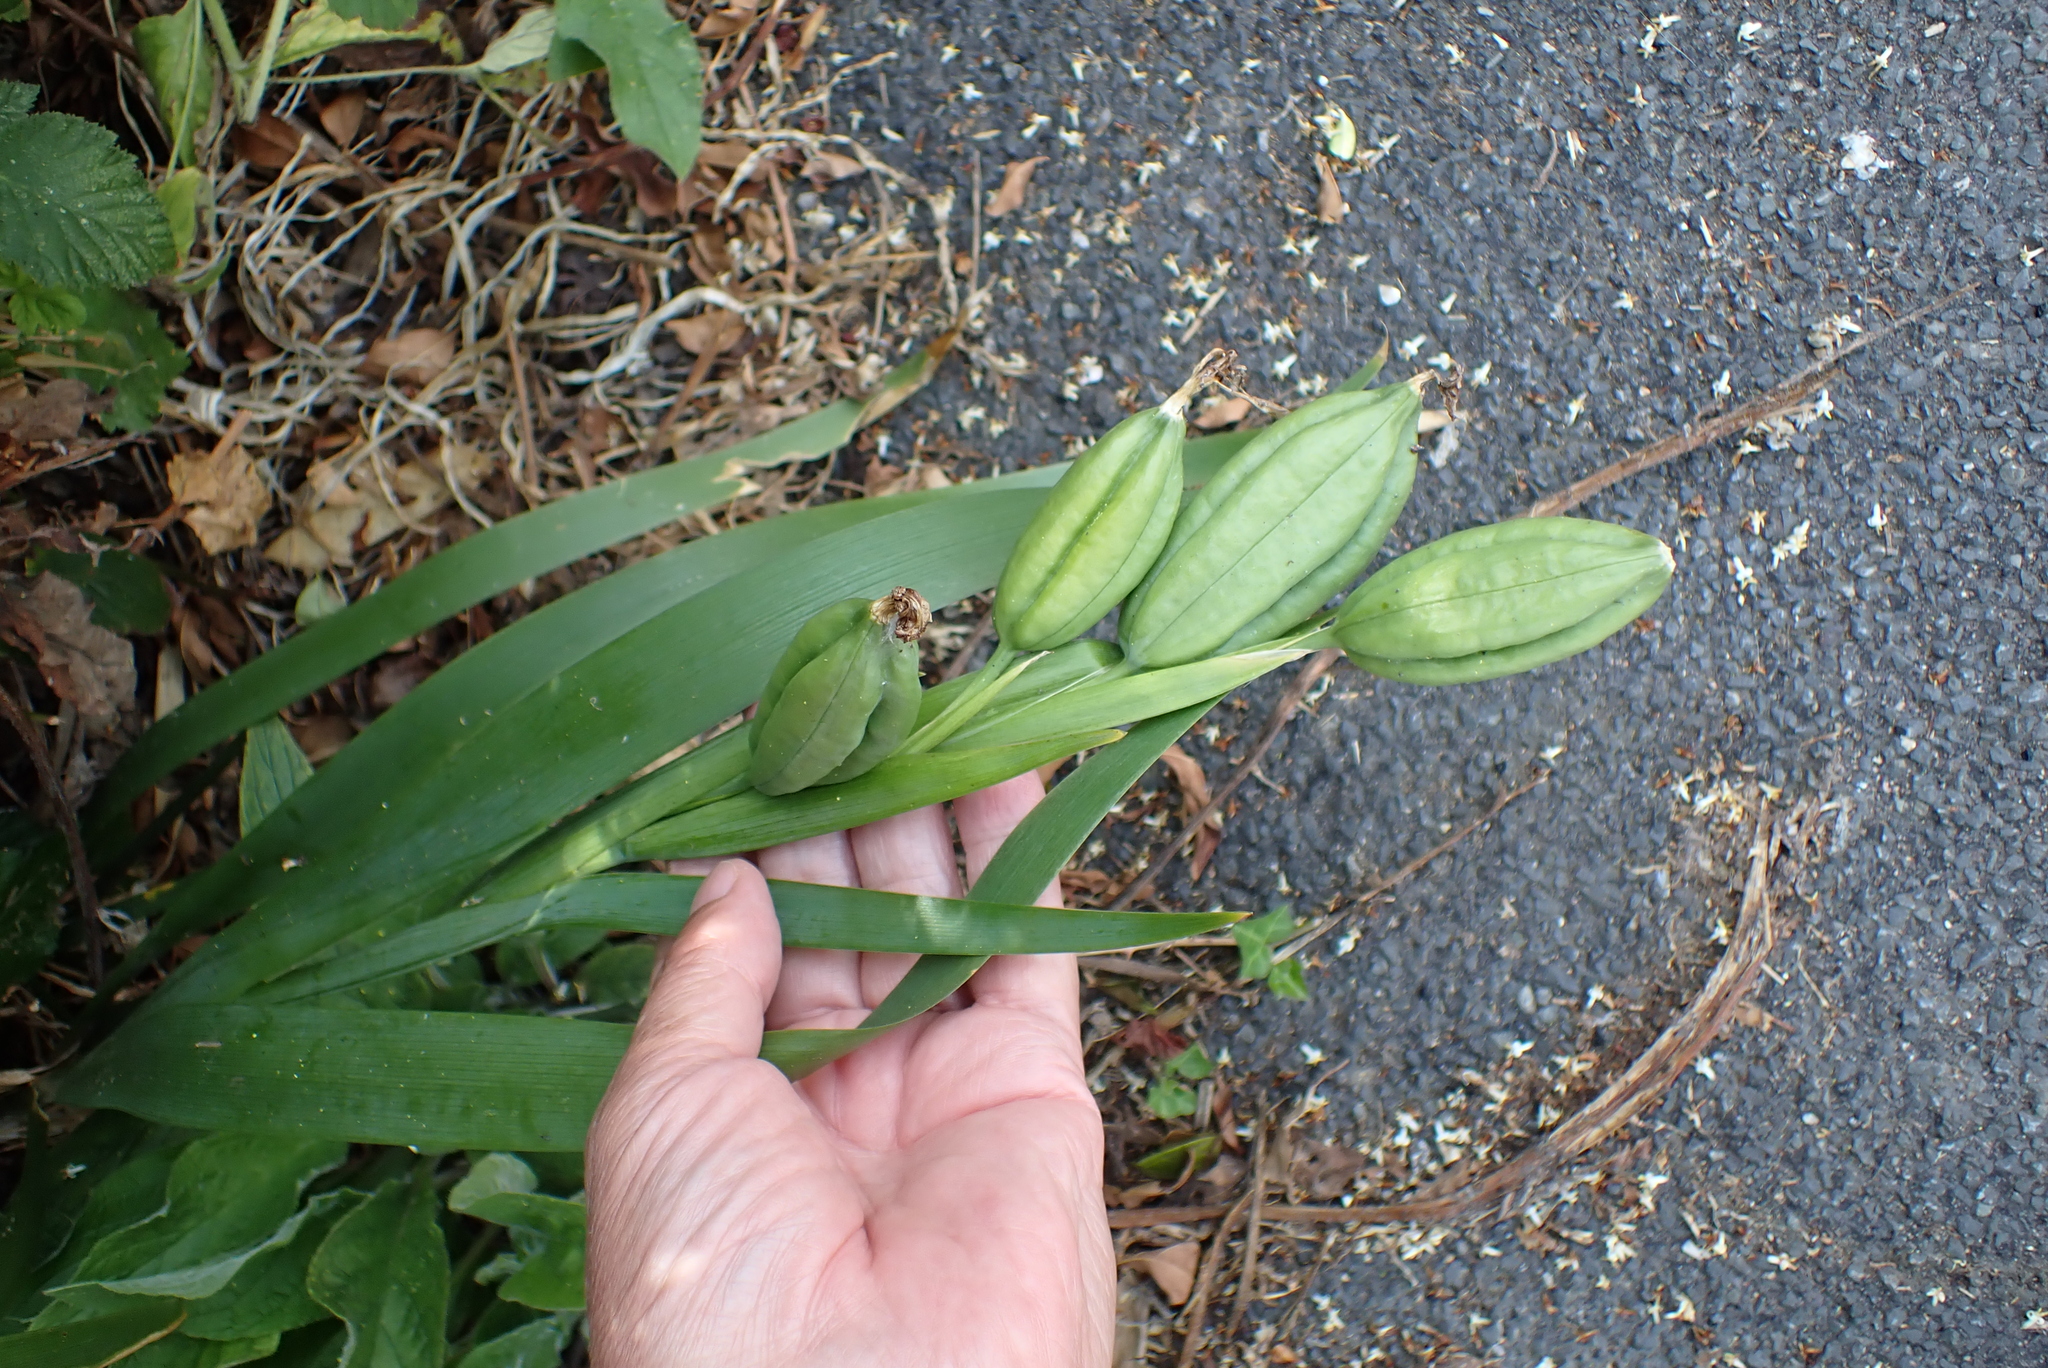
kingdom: Plantae
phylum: Tracheophyta
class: Liliopsida
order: Asparagales
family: Iridaceae
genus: Iris
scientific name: Iris foetidissima
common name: Stinking iris
